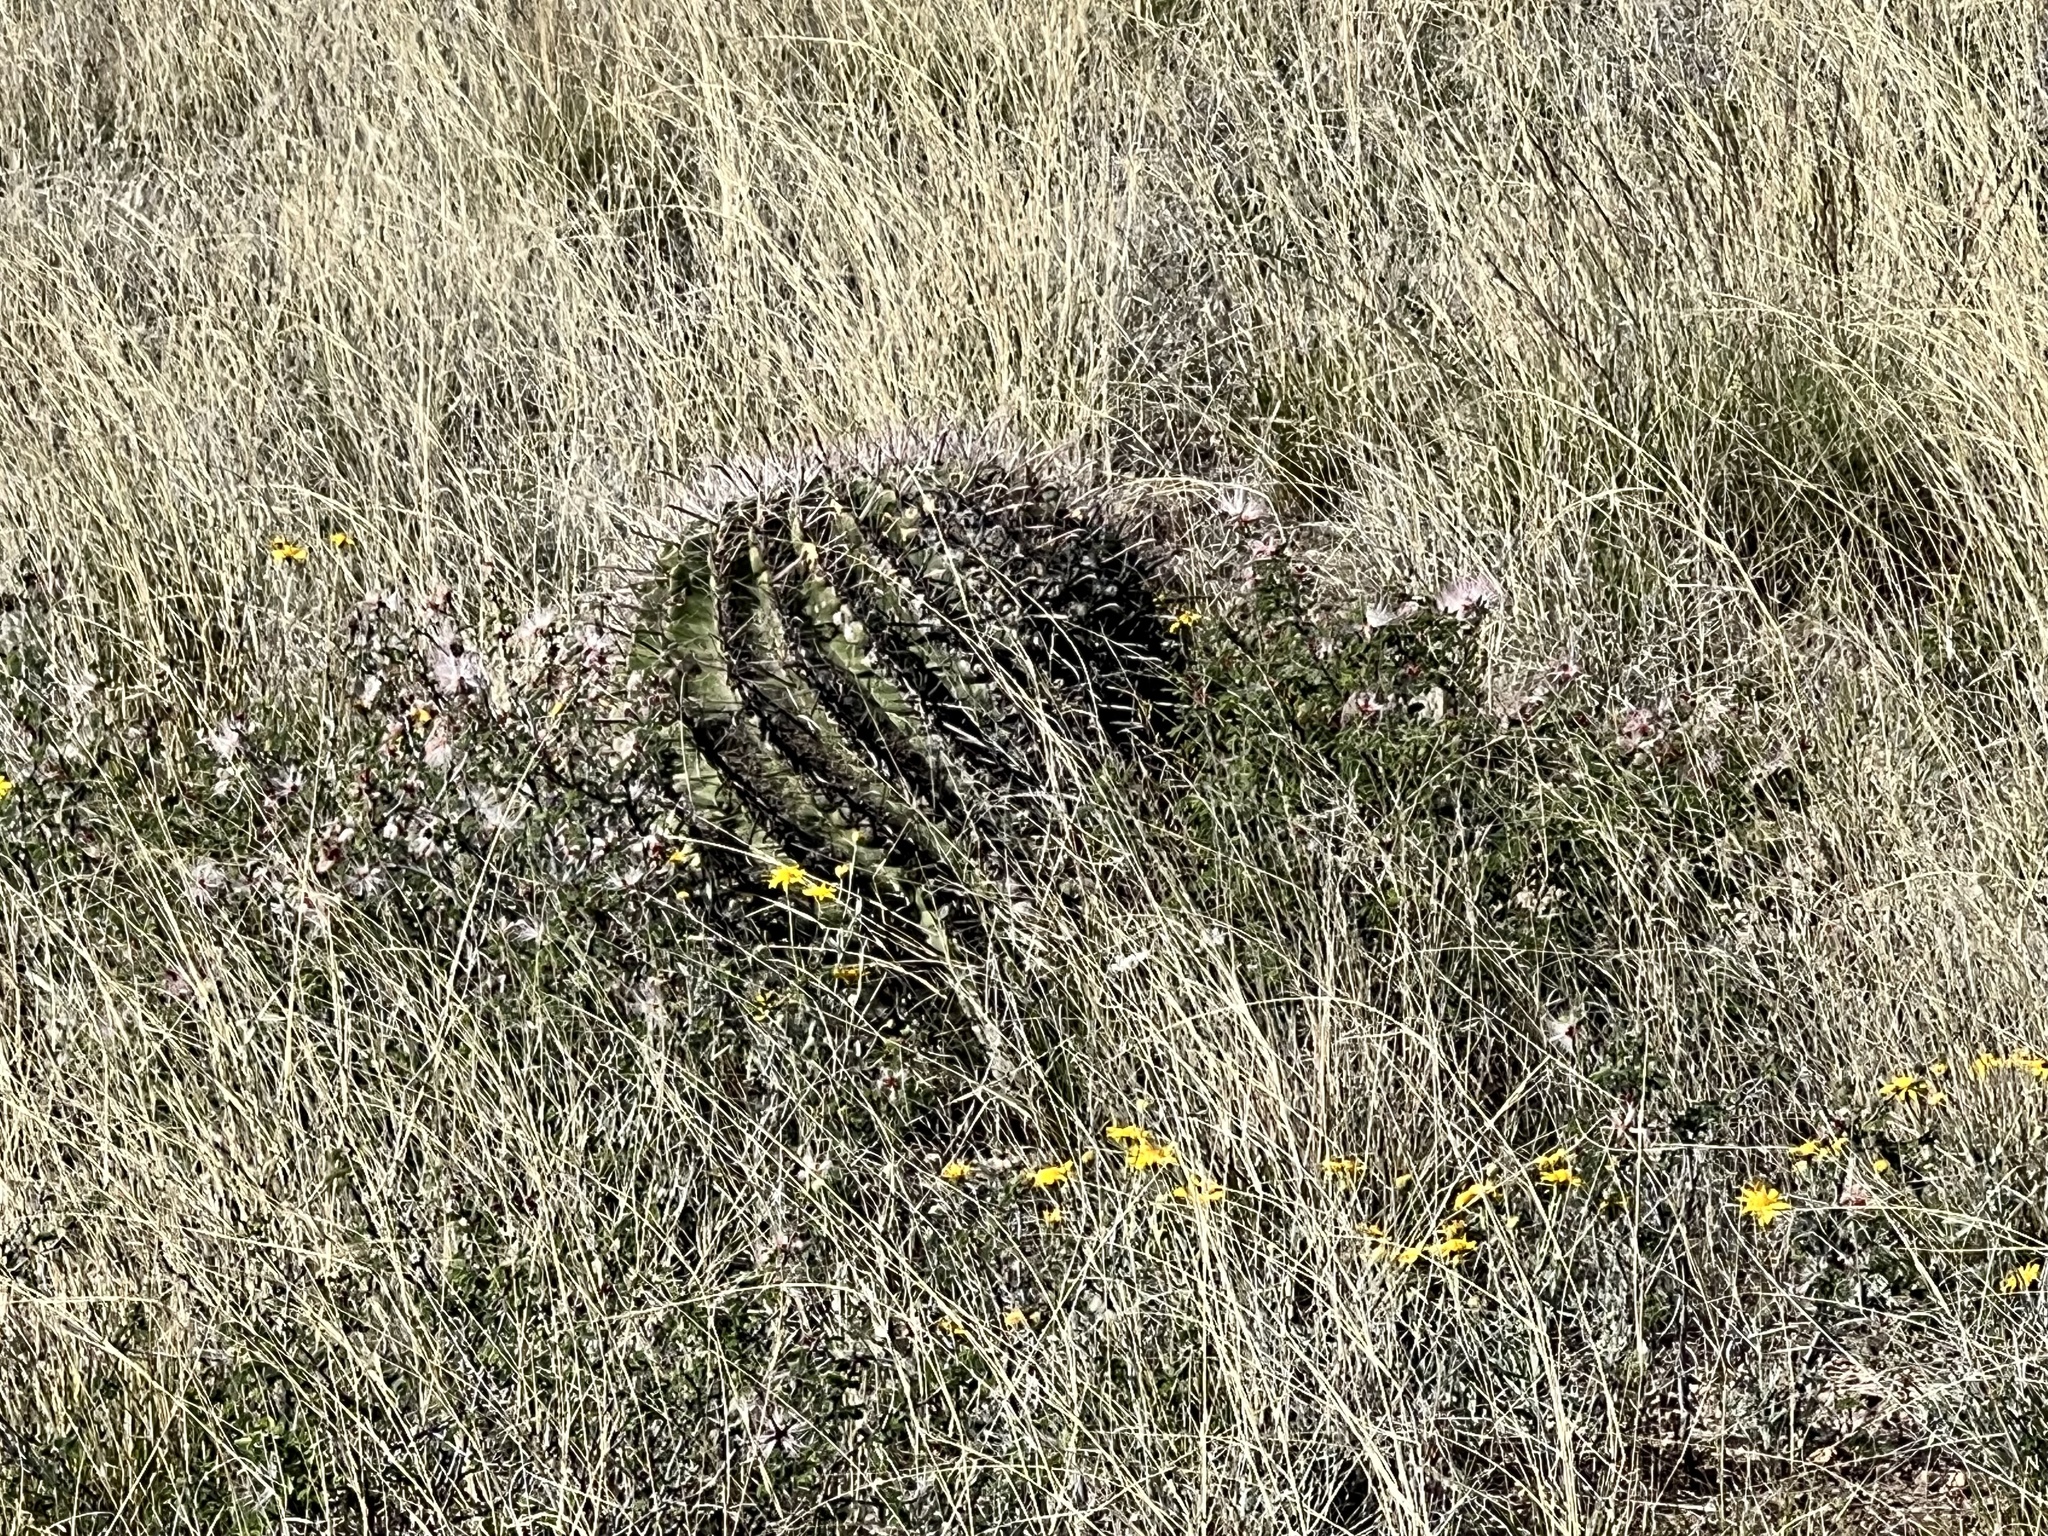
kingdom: Plantae
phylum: Tracheophyta
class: Magnoliopsida
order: Caryophyllales
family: Cactaceae
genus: Ferocactus
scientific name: Ferocactus wislizeni
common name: Candy barrel cactus
